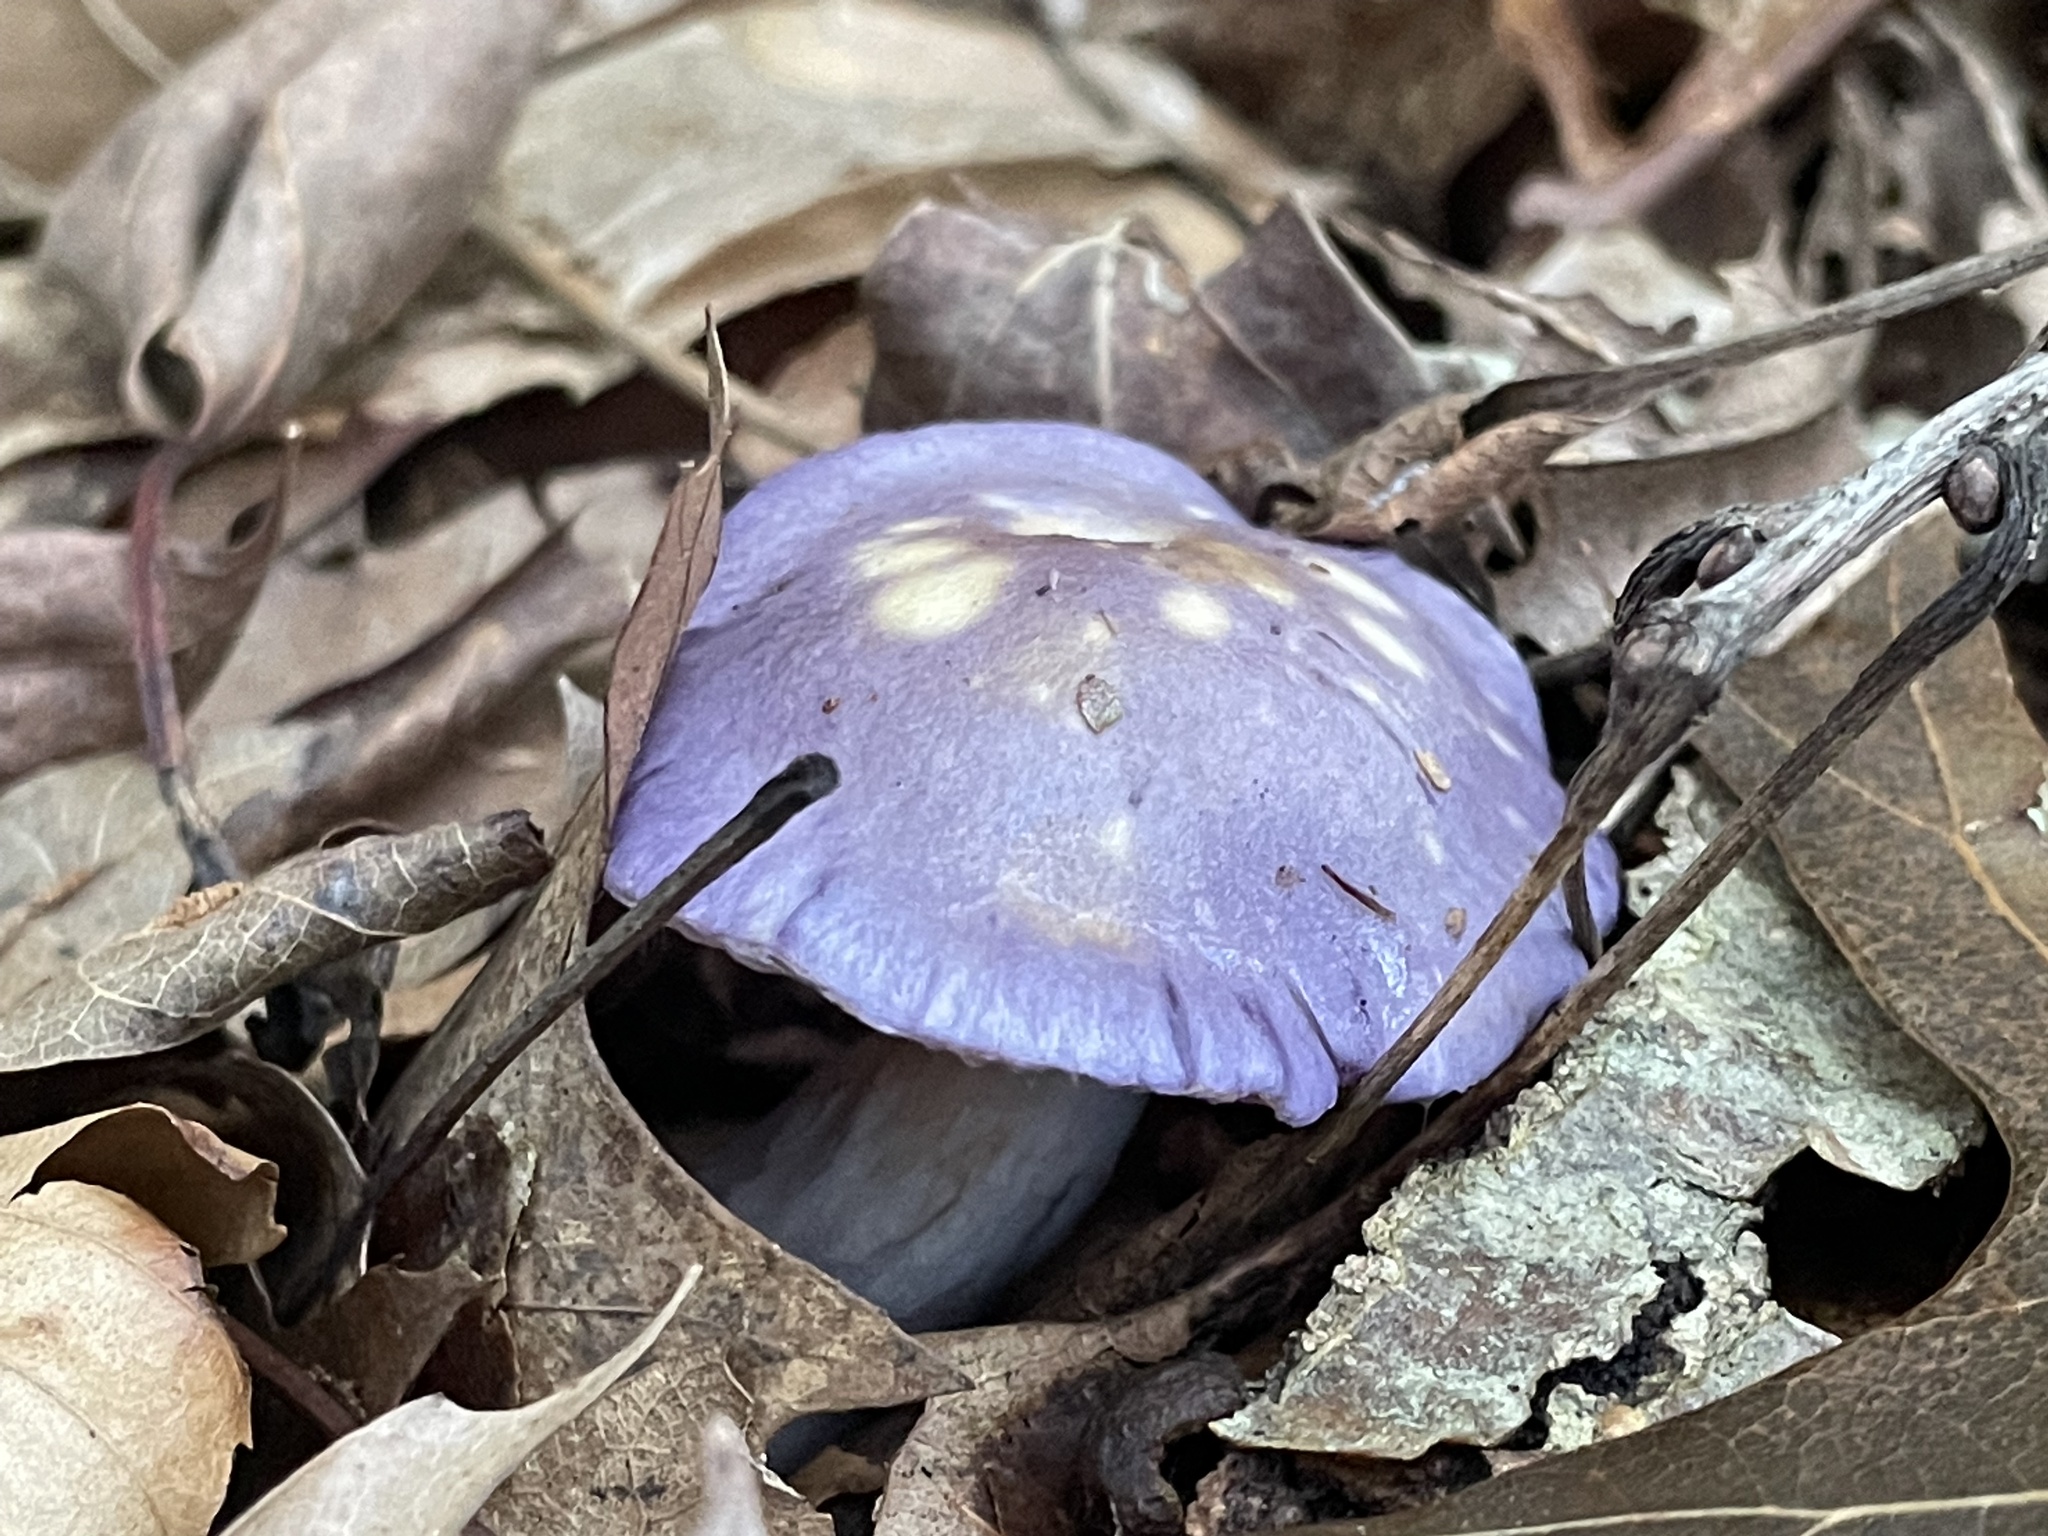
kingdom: Fungi
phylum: Basidiomycota
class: Agaricomycetes
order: Agaricales
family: Cortinariaceae
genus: Cortinarius
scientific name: Cortinarius iodes
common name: Viscid violet cort
